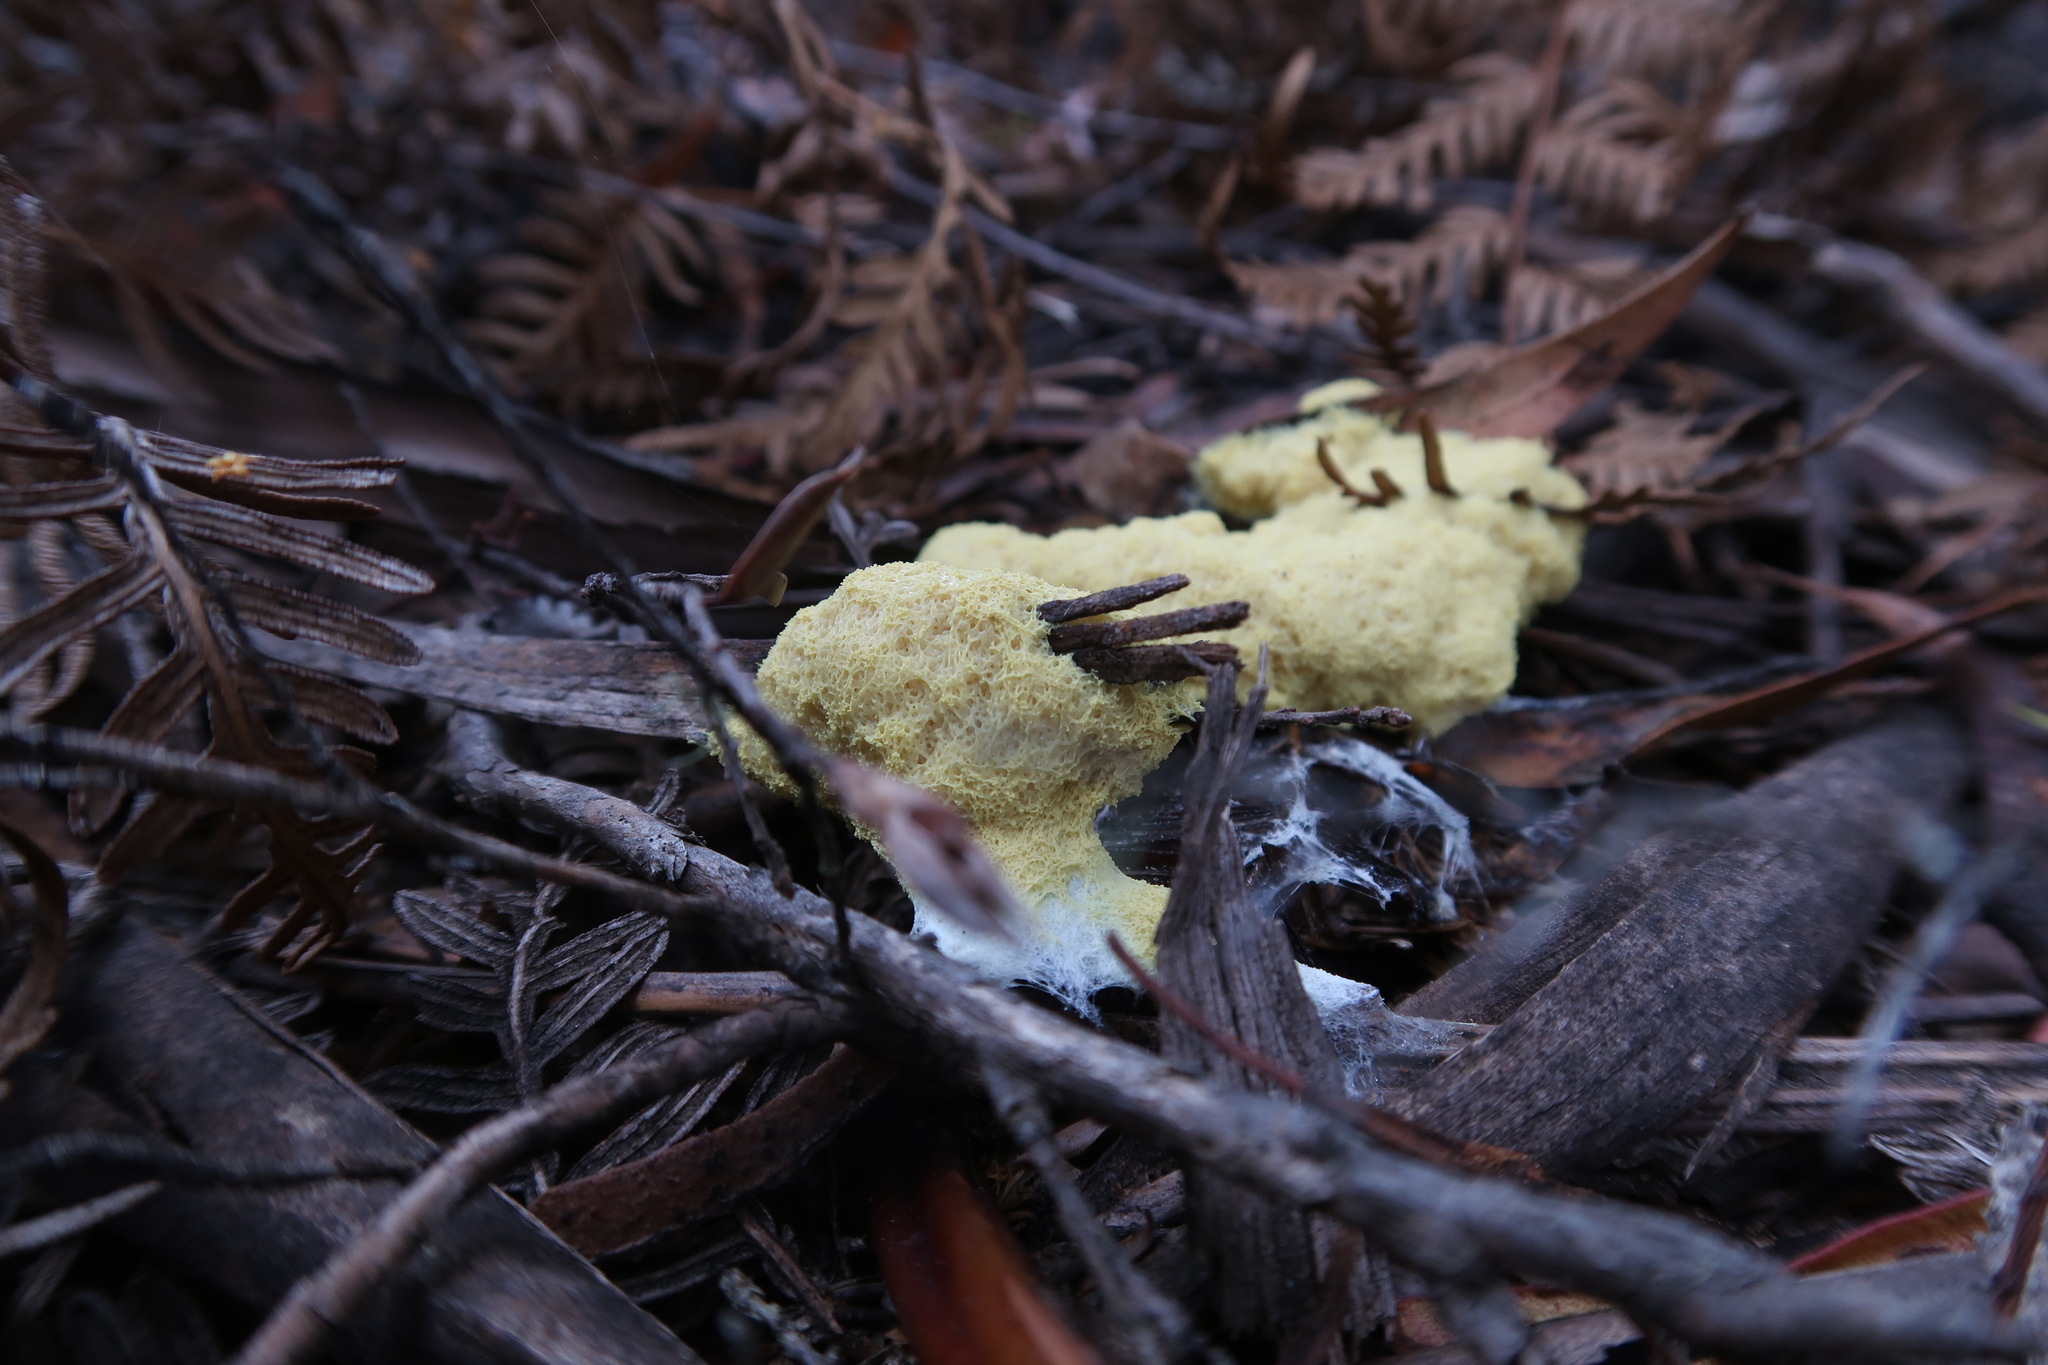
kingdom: Protozoa
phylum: Mycetozoa
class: Myxomycetes
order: Physarales
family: Physaraceae
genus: Fuligo
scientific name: Fuligo septica
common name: Dog vomit slime mold
